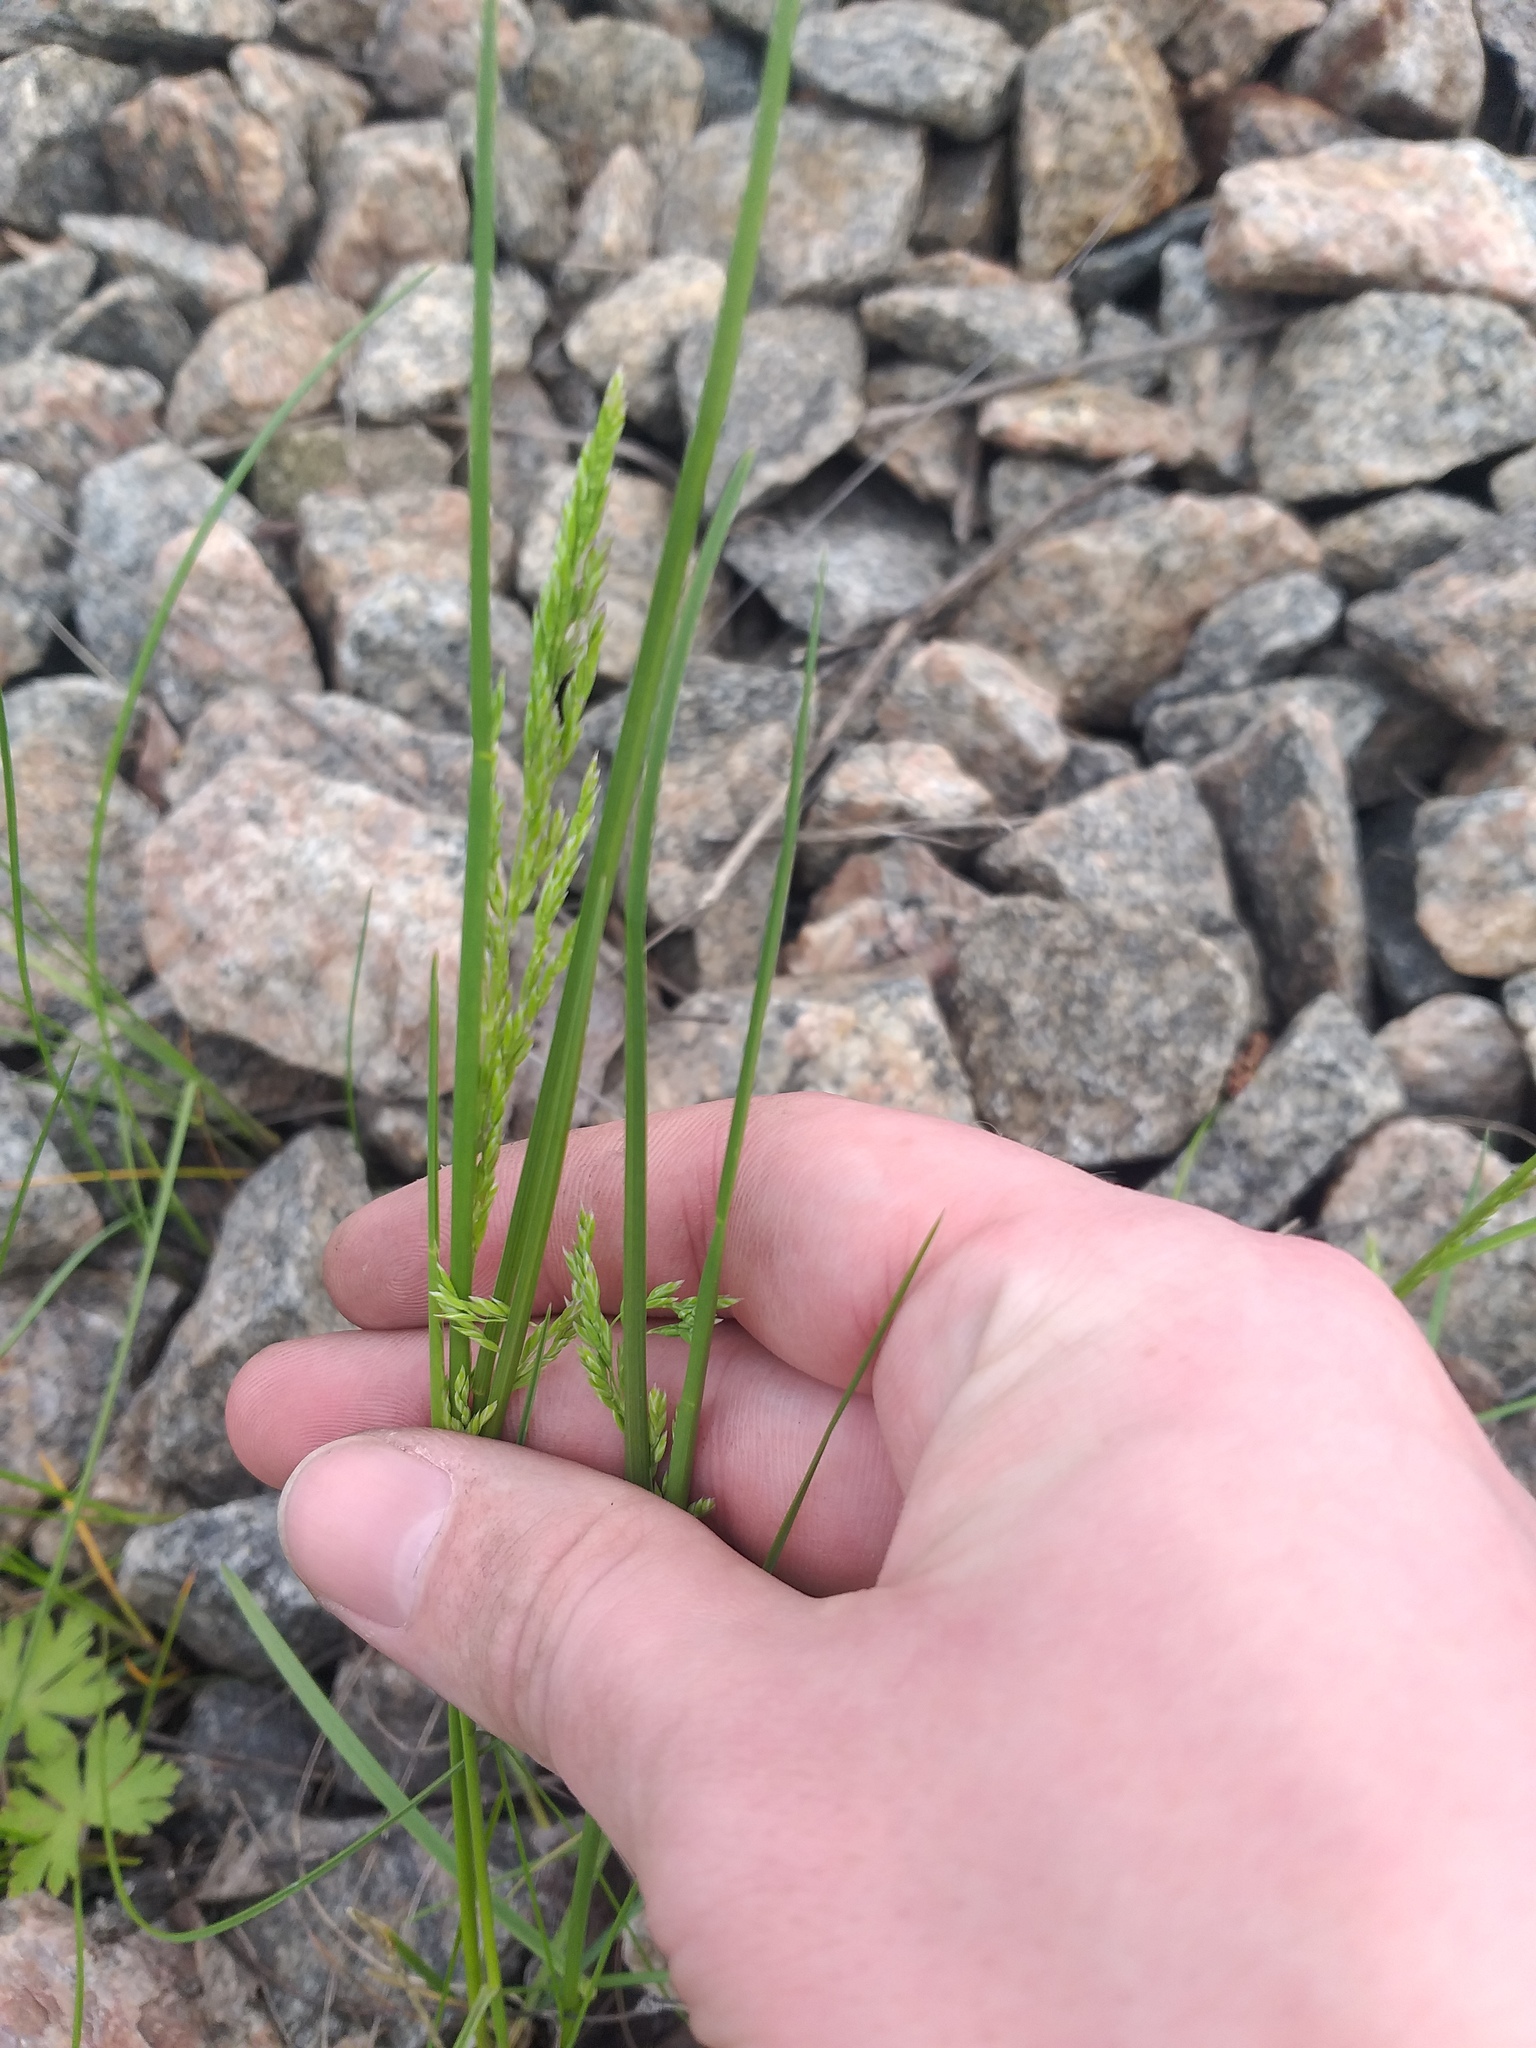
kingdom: Plantae
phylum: Tracheophyta
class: Liliopsida
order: Poales
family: Poaceae
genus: Poa
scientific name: Poa angustifolia
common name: Narrow-leaved meadow-grass
